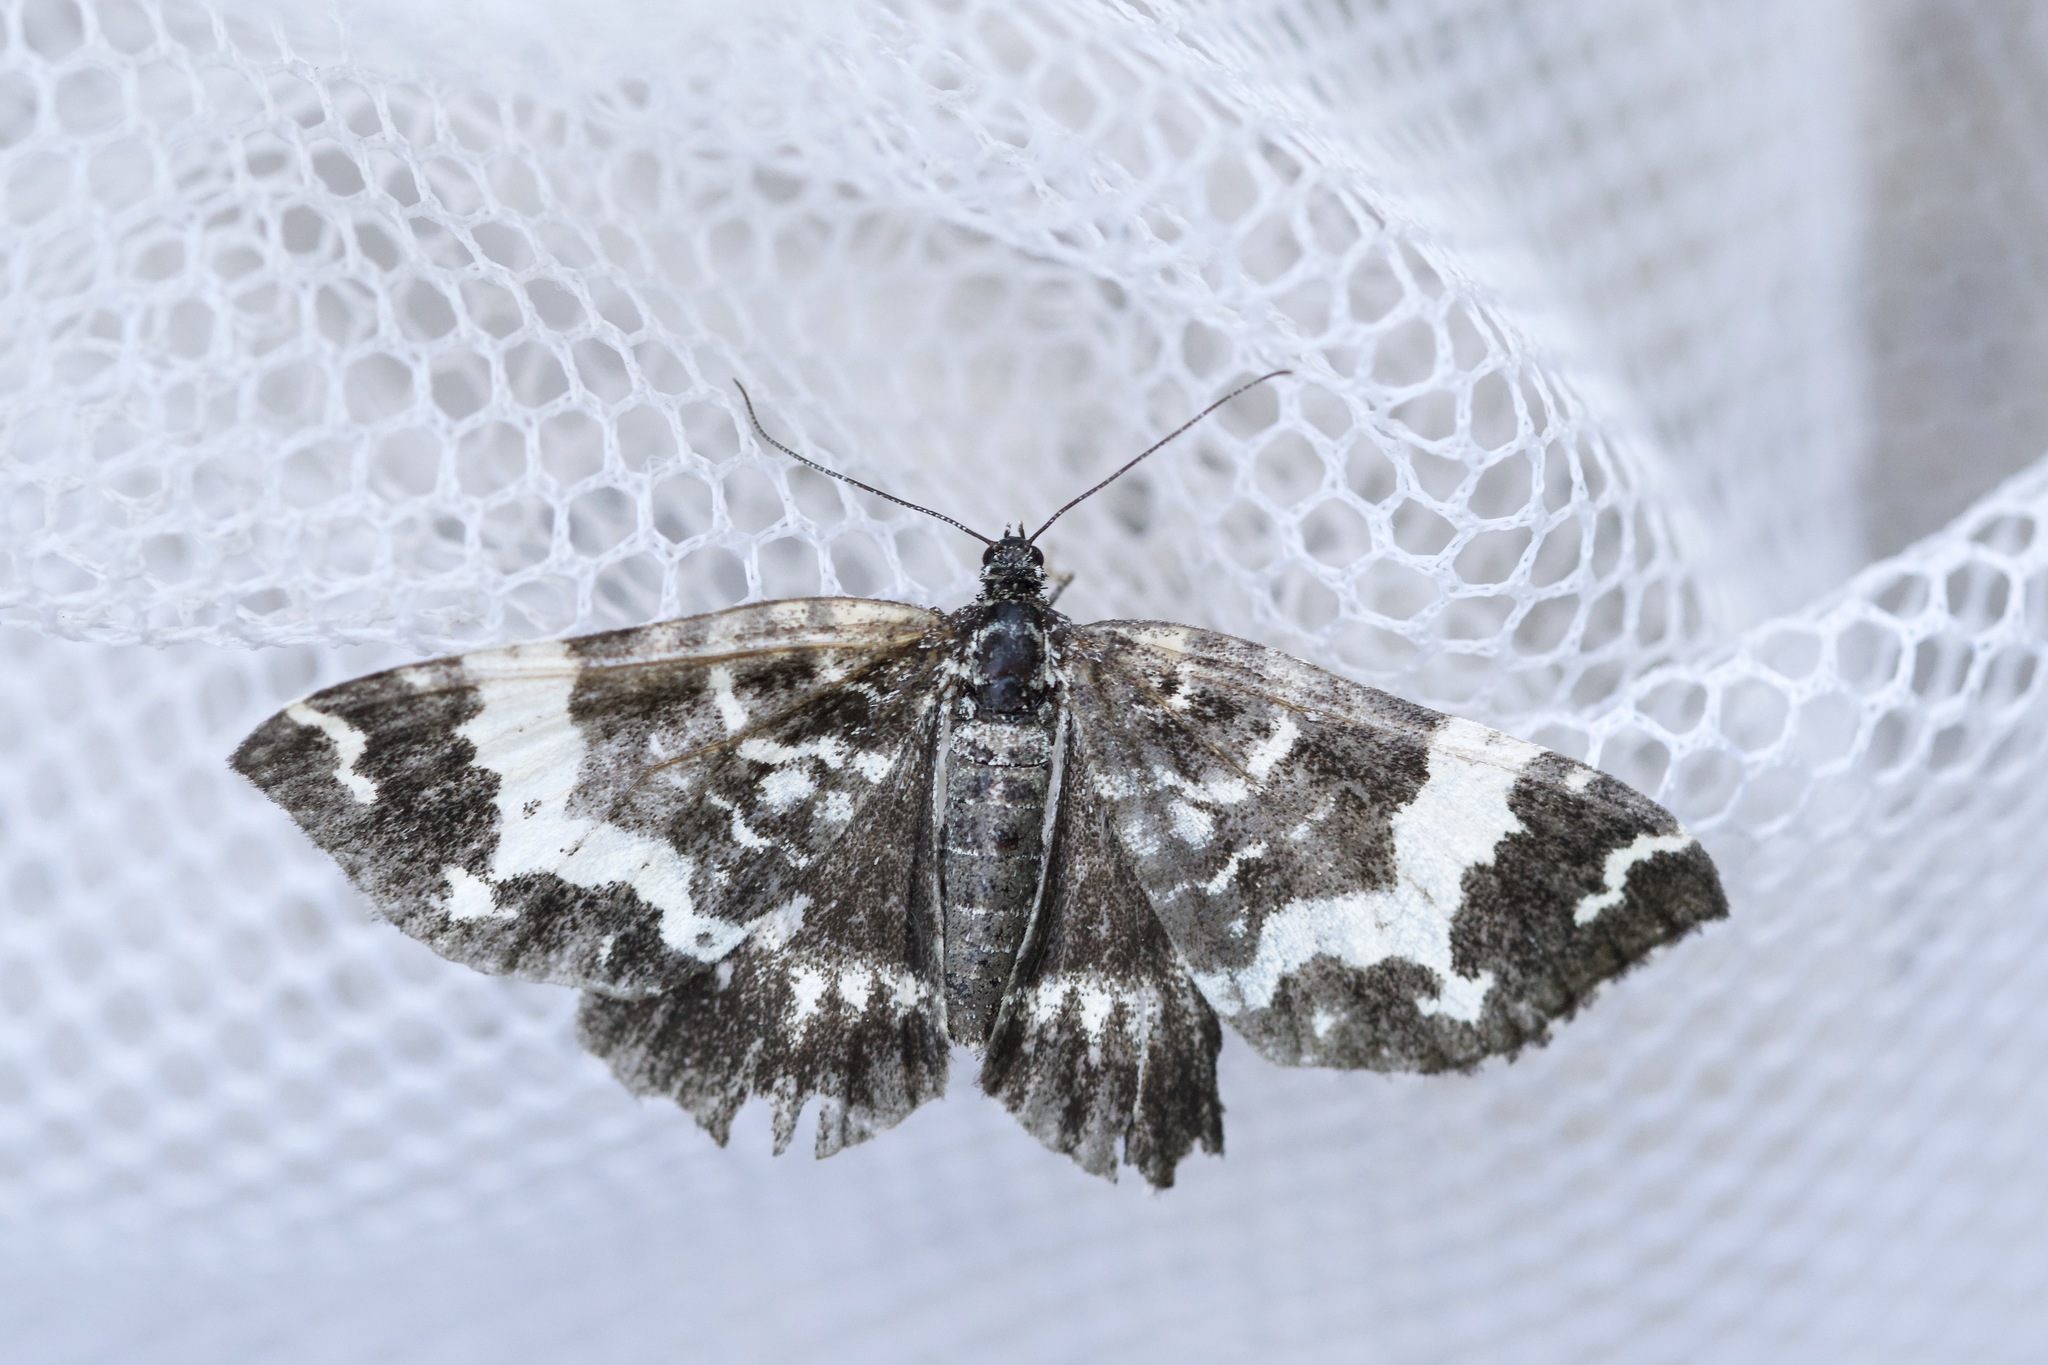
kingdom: Animalia
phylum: Arthropoda
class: Insecta
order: Lepidoptera
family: Geometridae
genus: Rheumaptera
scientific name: Rheumaptera
